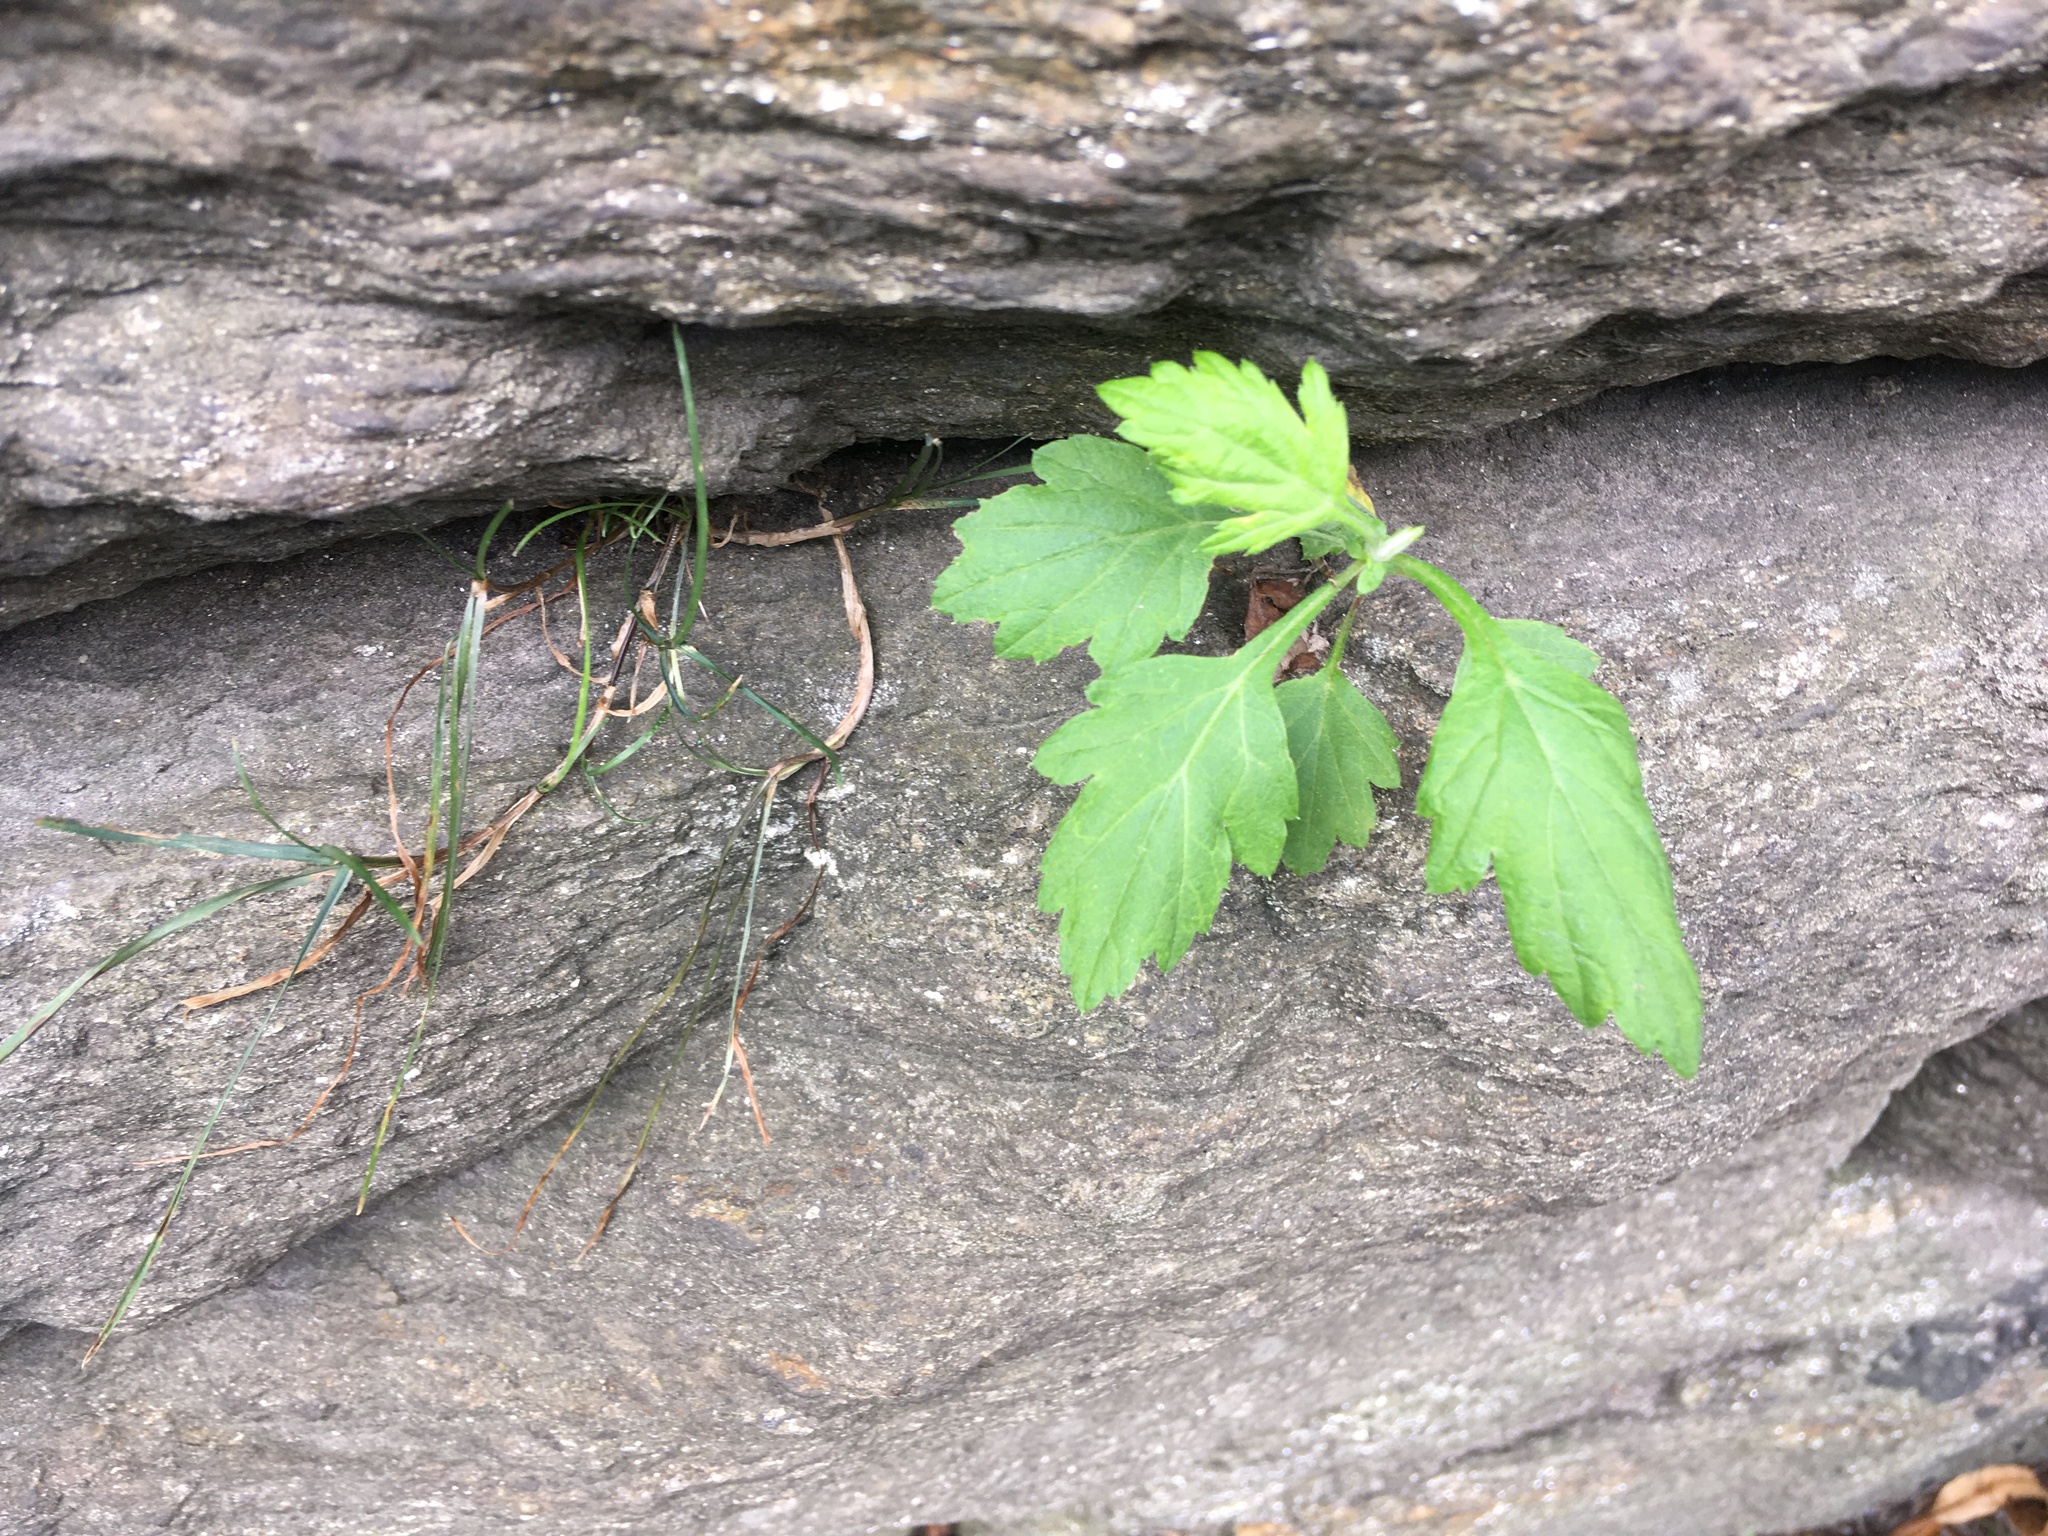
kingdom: Plantae
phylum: Tracheophyta
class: Magnoliopsida
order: Asterales
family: Asteraceae
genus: Artemisia
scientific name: Artemisia vulgaris
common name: Mugwort
